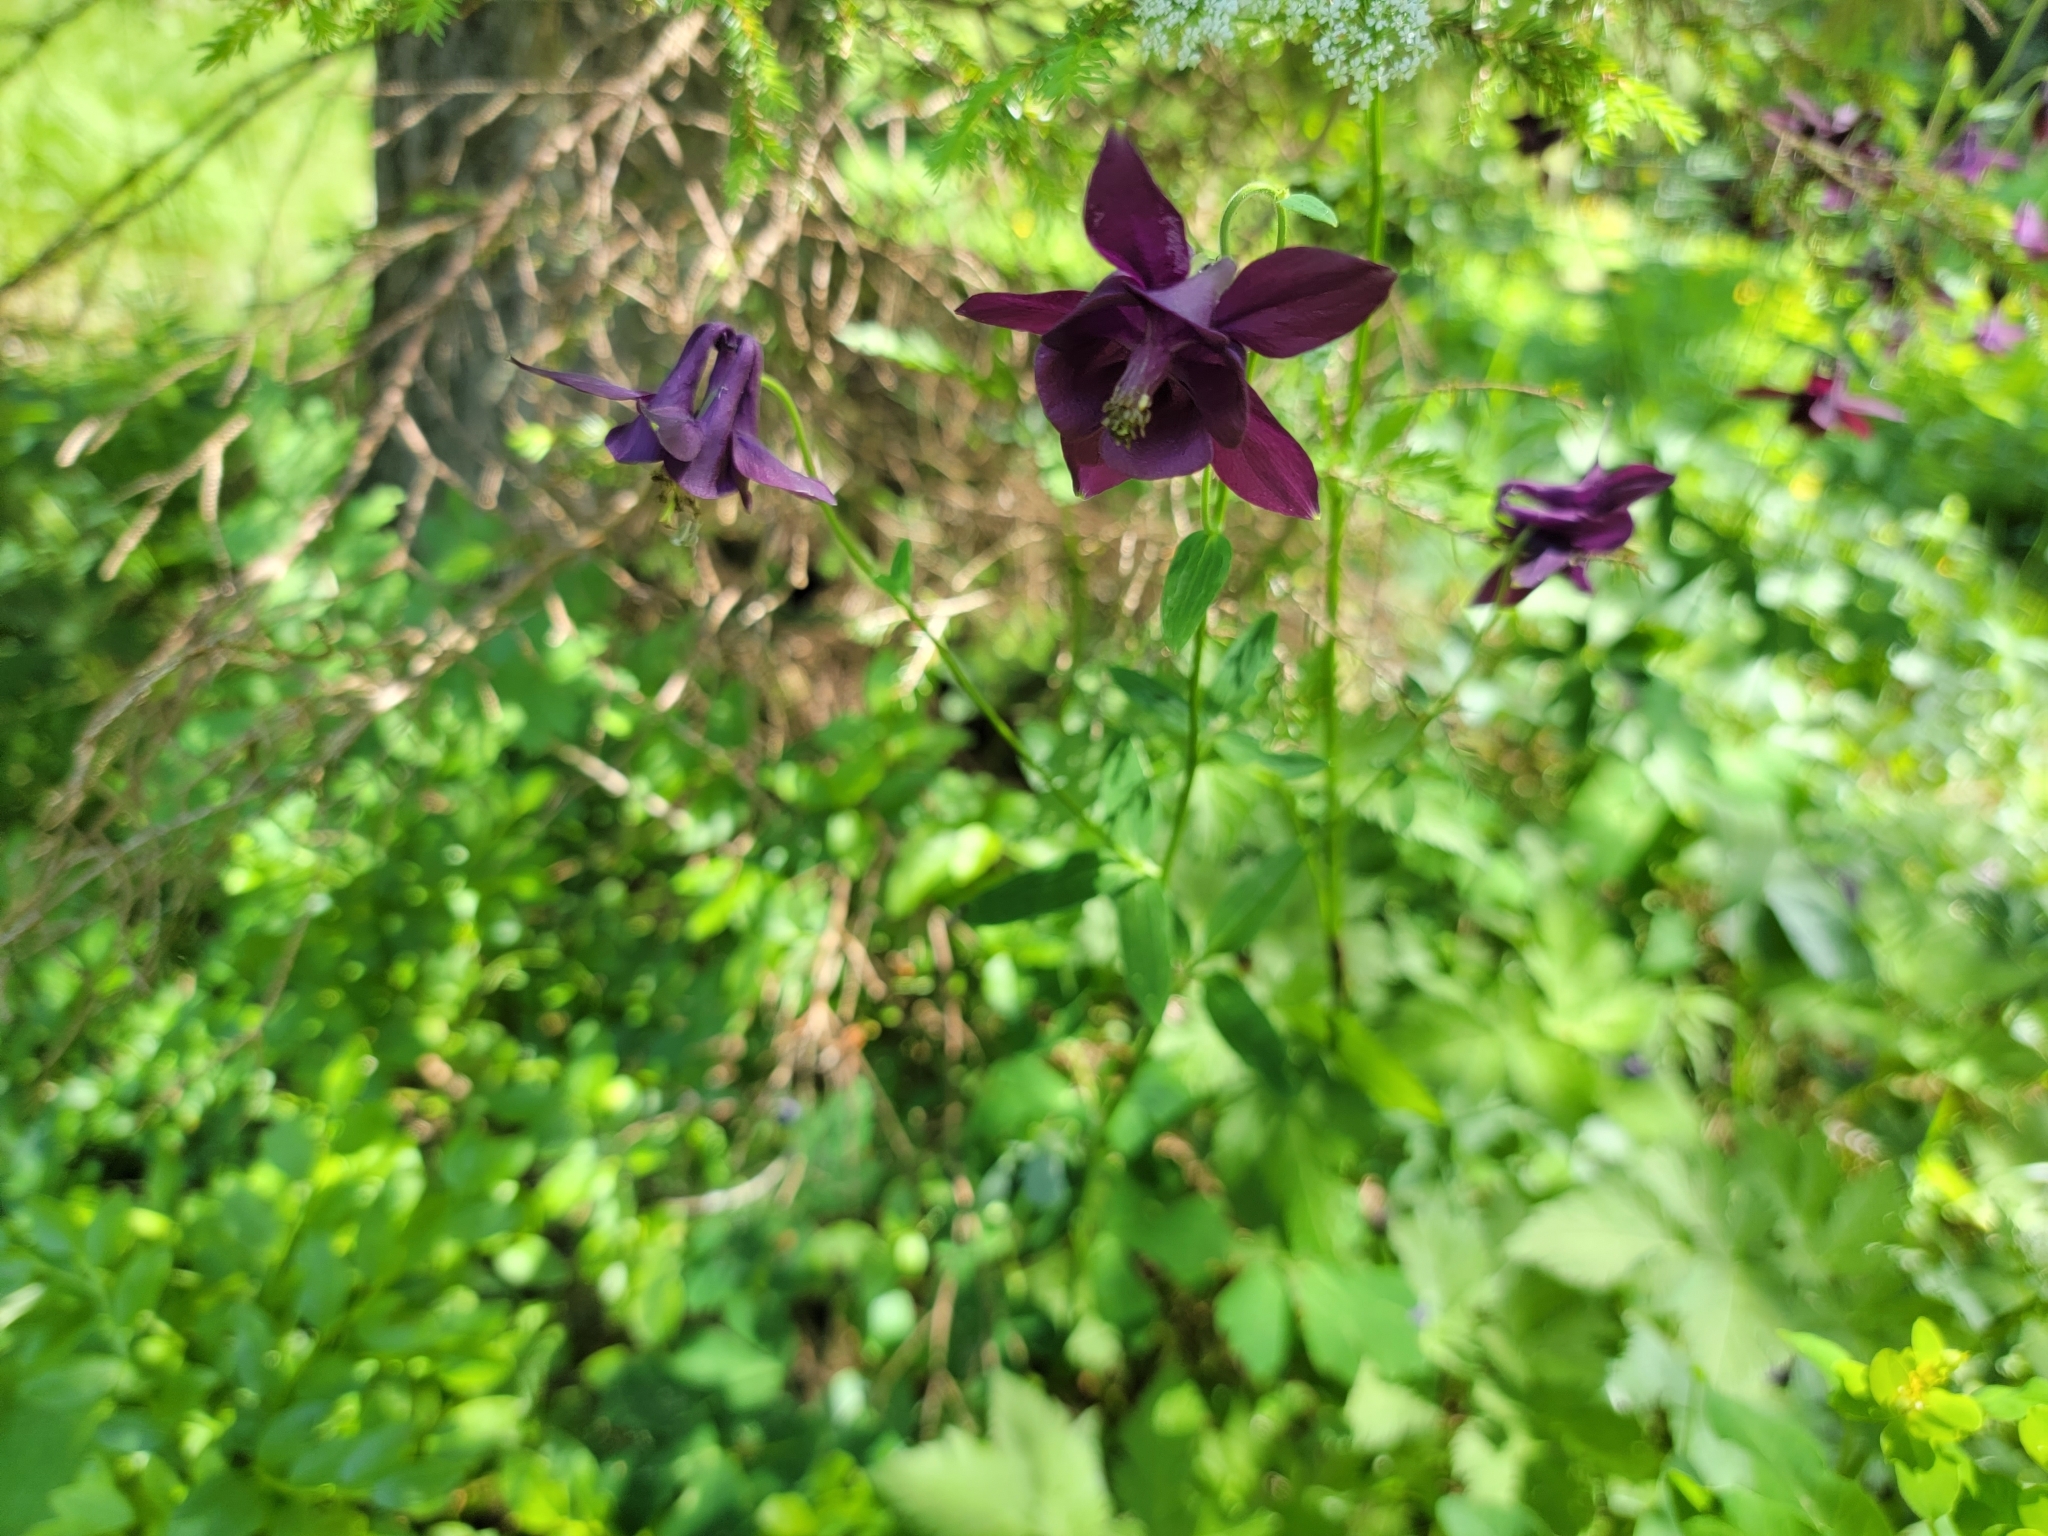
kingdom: Plantae
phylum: Tracheophyta
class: Magnoliopsida
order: Ranunculales
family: Ranunculaceae
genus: Aquilegia
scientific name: Aquilegia atrata
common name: Dark columbine
